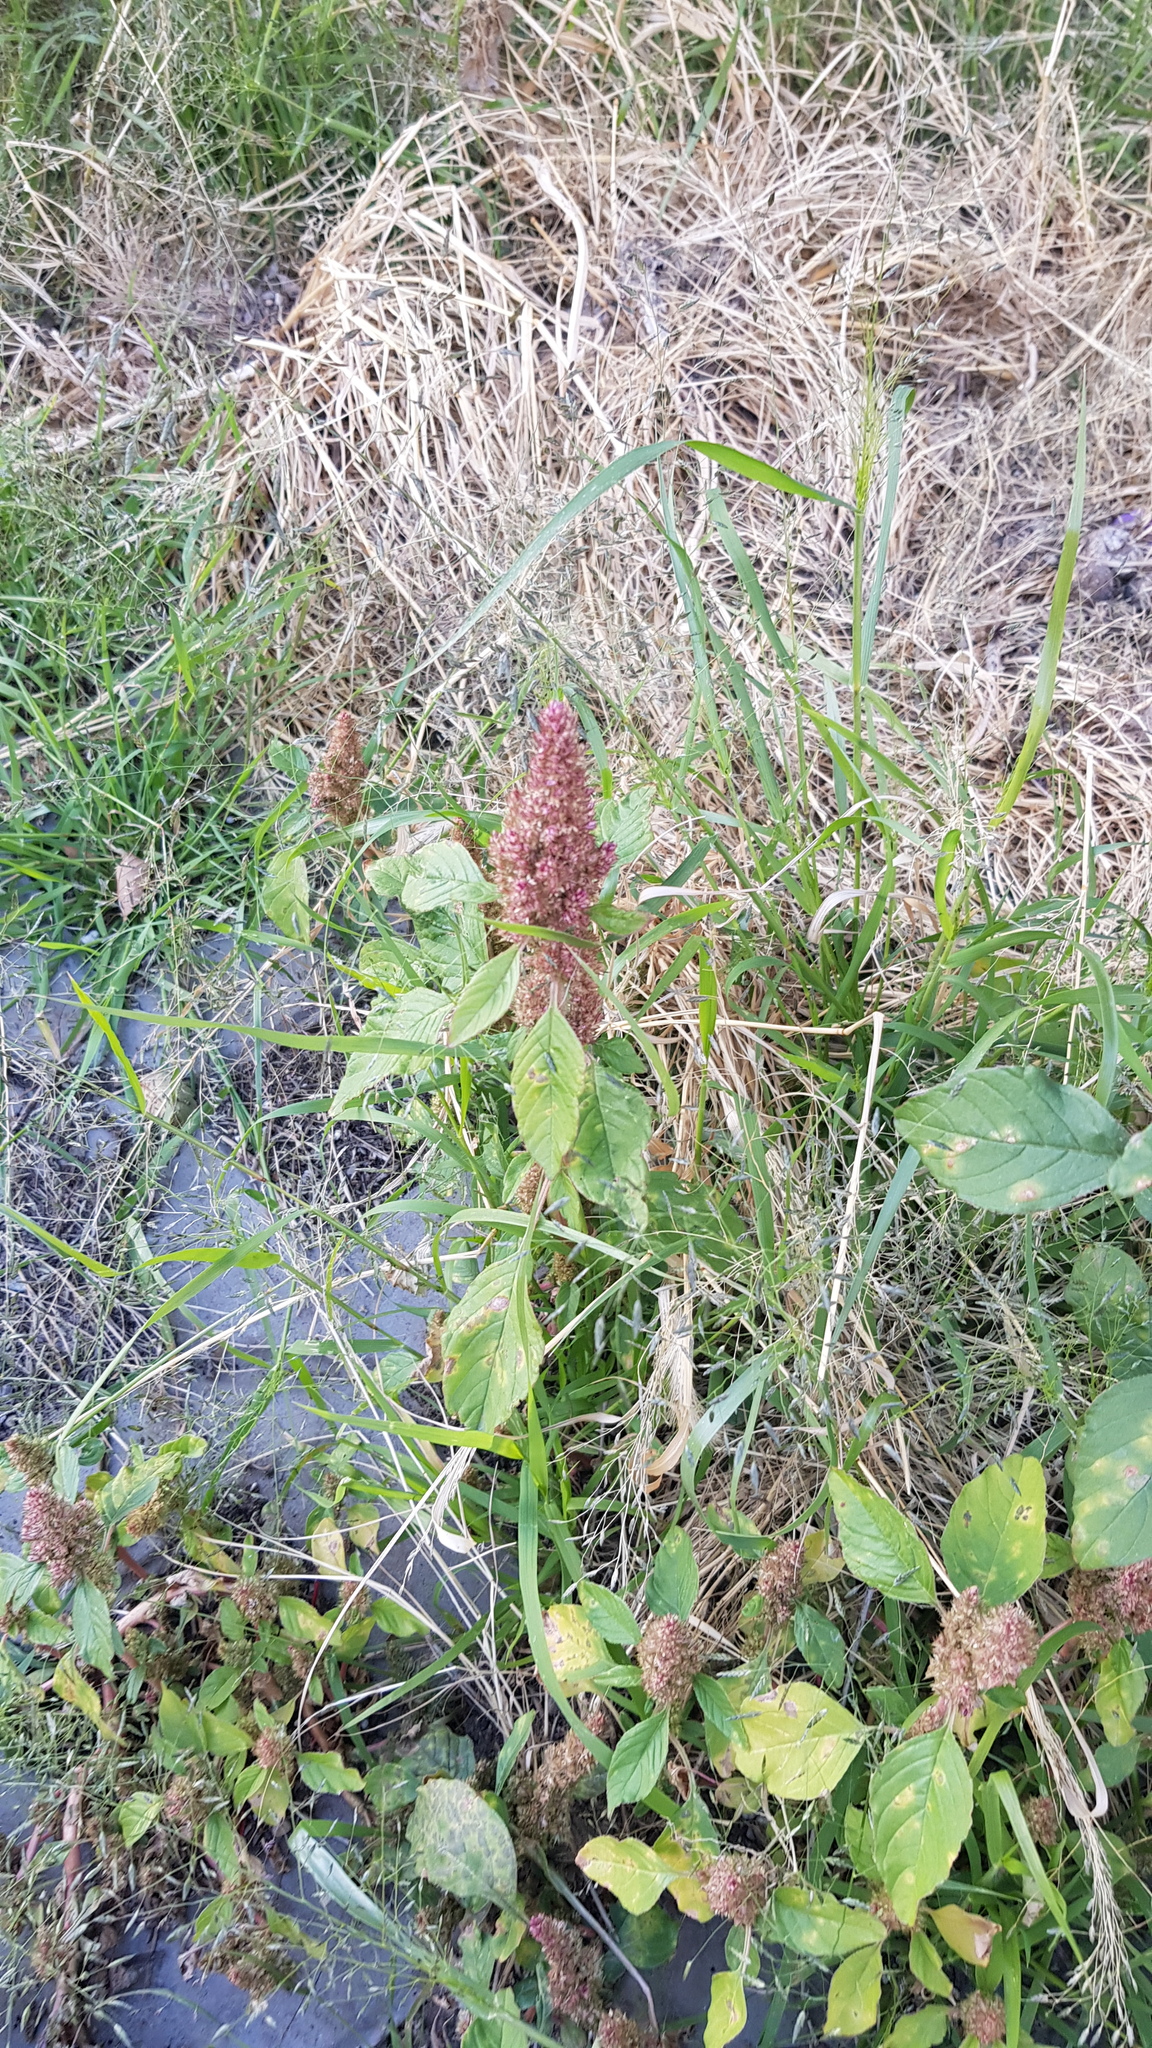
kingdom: Plantae
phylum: Tracheophyta
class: Magnoliopsida
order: Caryophyllales
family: Amaranthaceae
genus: Amaranthus
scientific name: Amaranthus cruentus
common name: Purple amaranth
